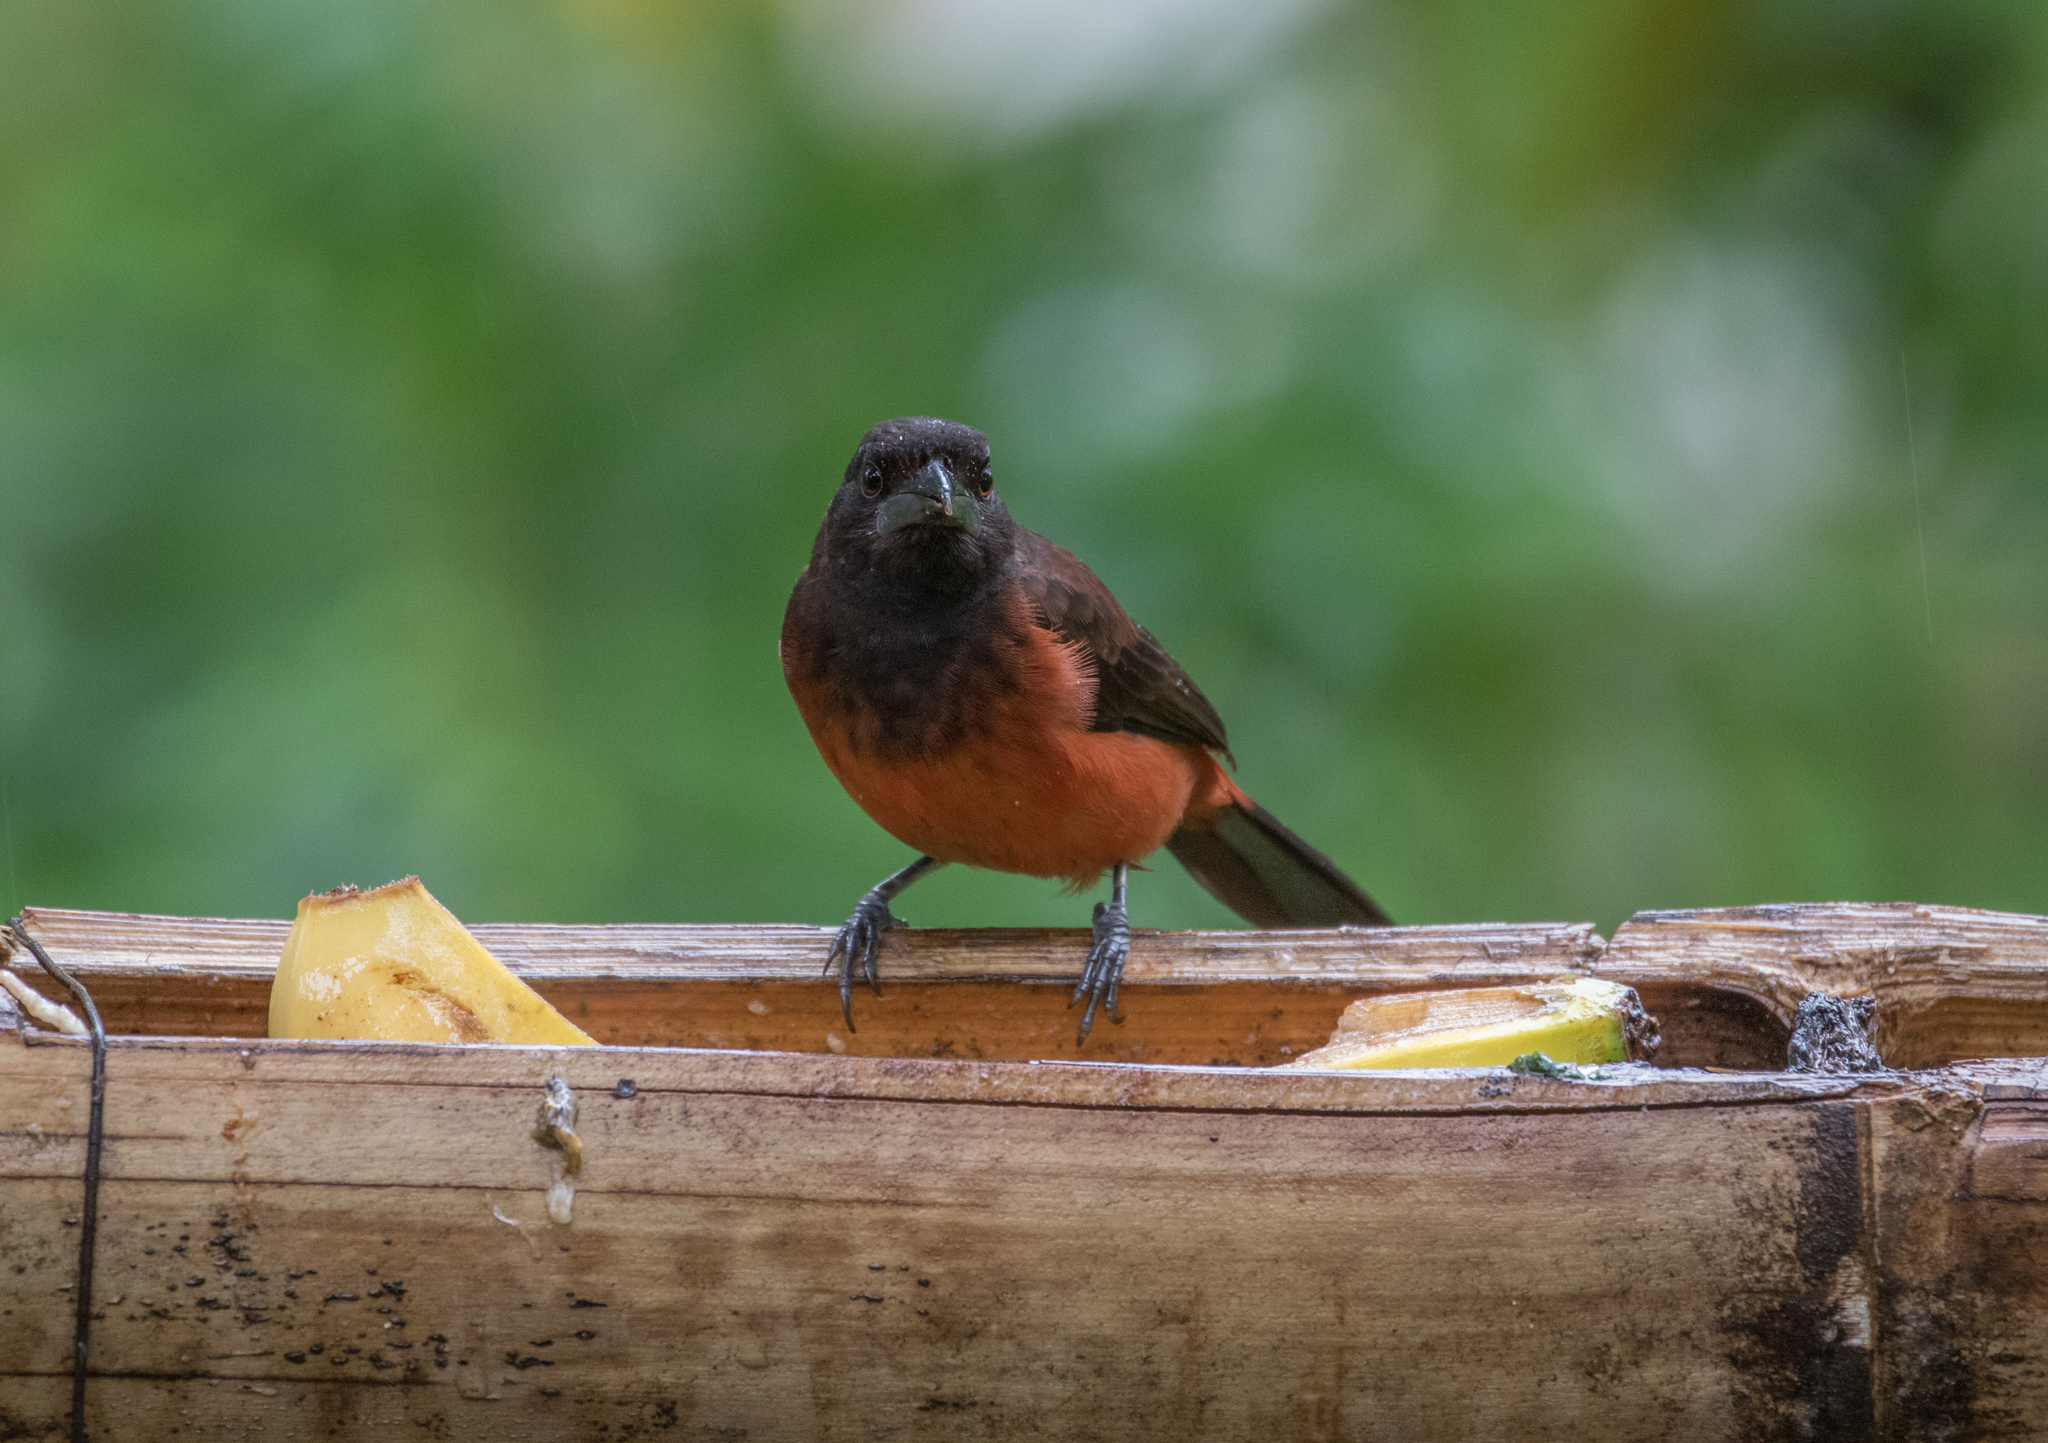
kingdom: Animalia
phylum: Chordata
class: Aves
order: Passeriformes
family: Thraupidae
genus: Ramphocelus
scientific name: Ramphocelus dimidiatus
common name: Crimson-backed tanager
